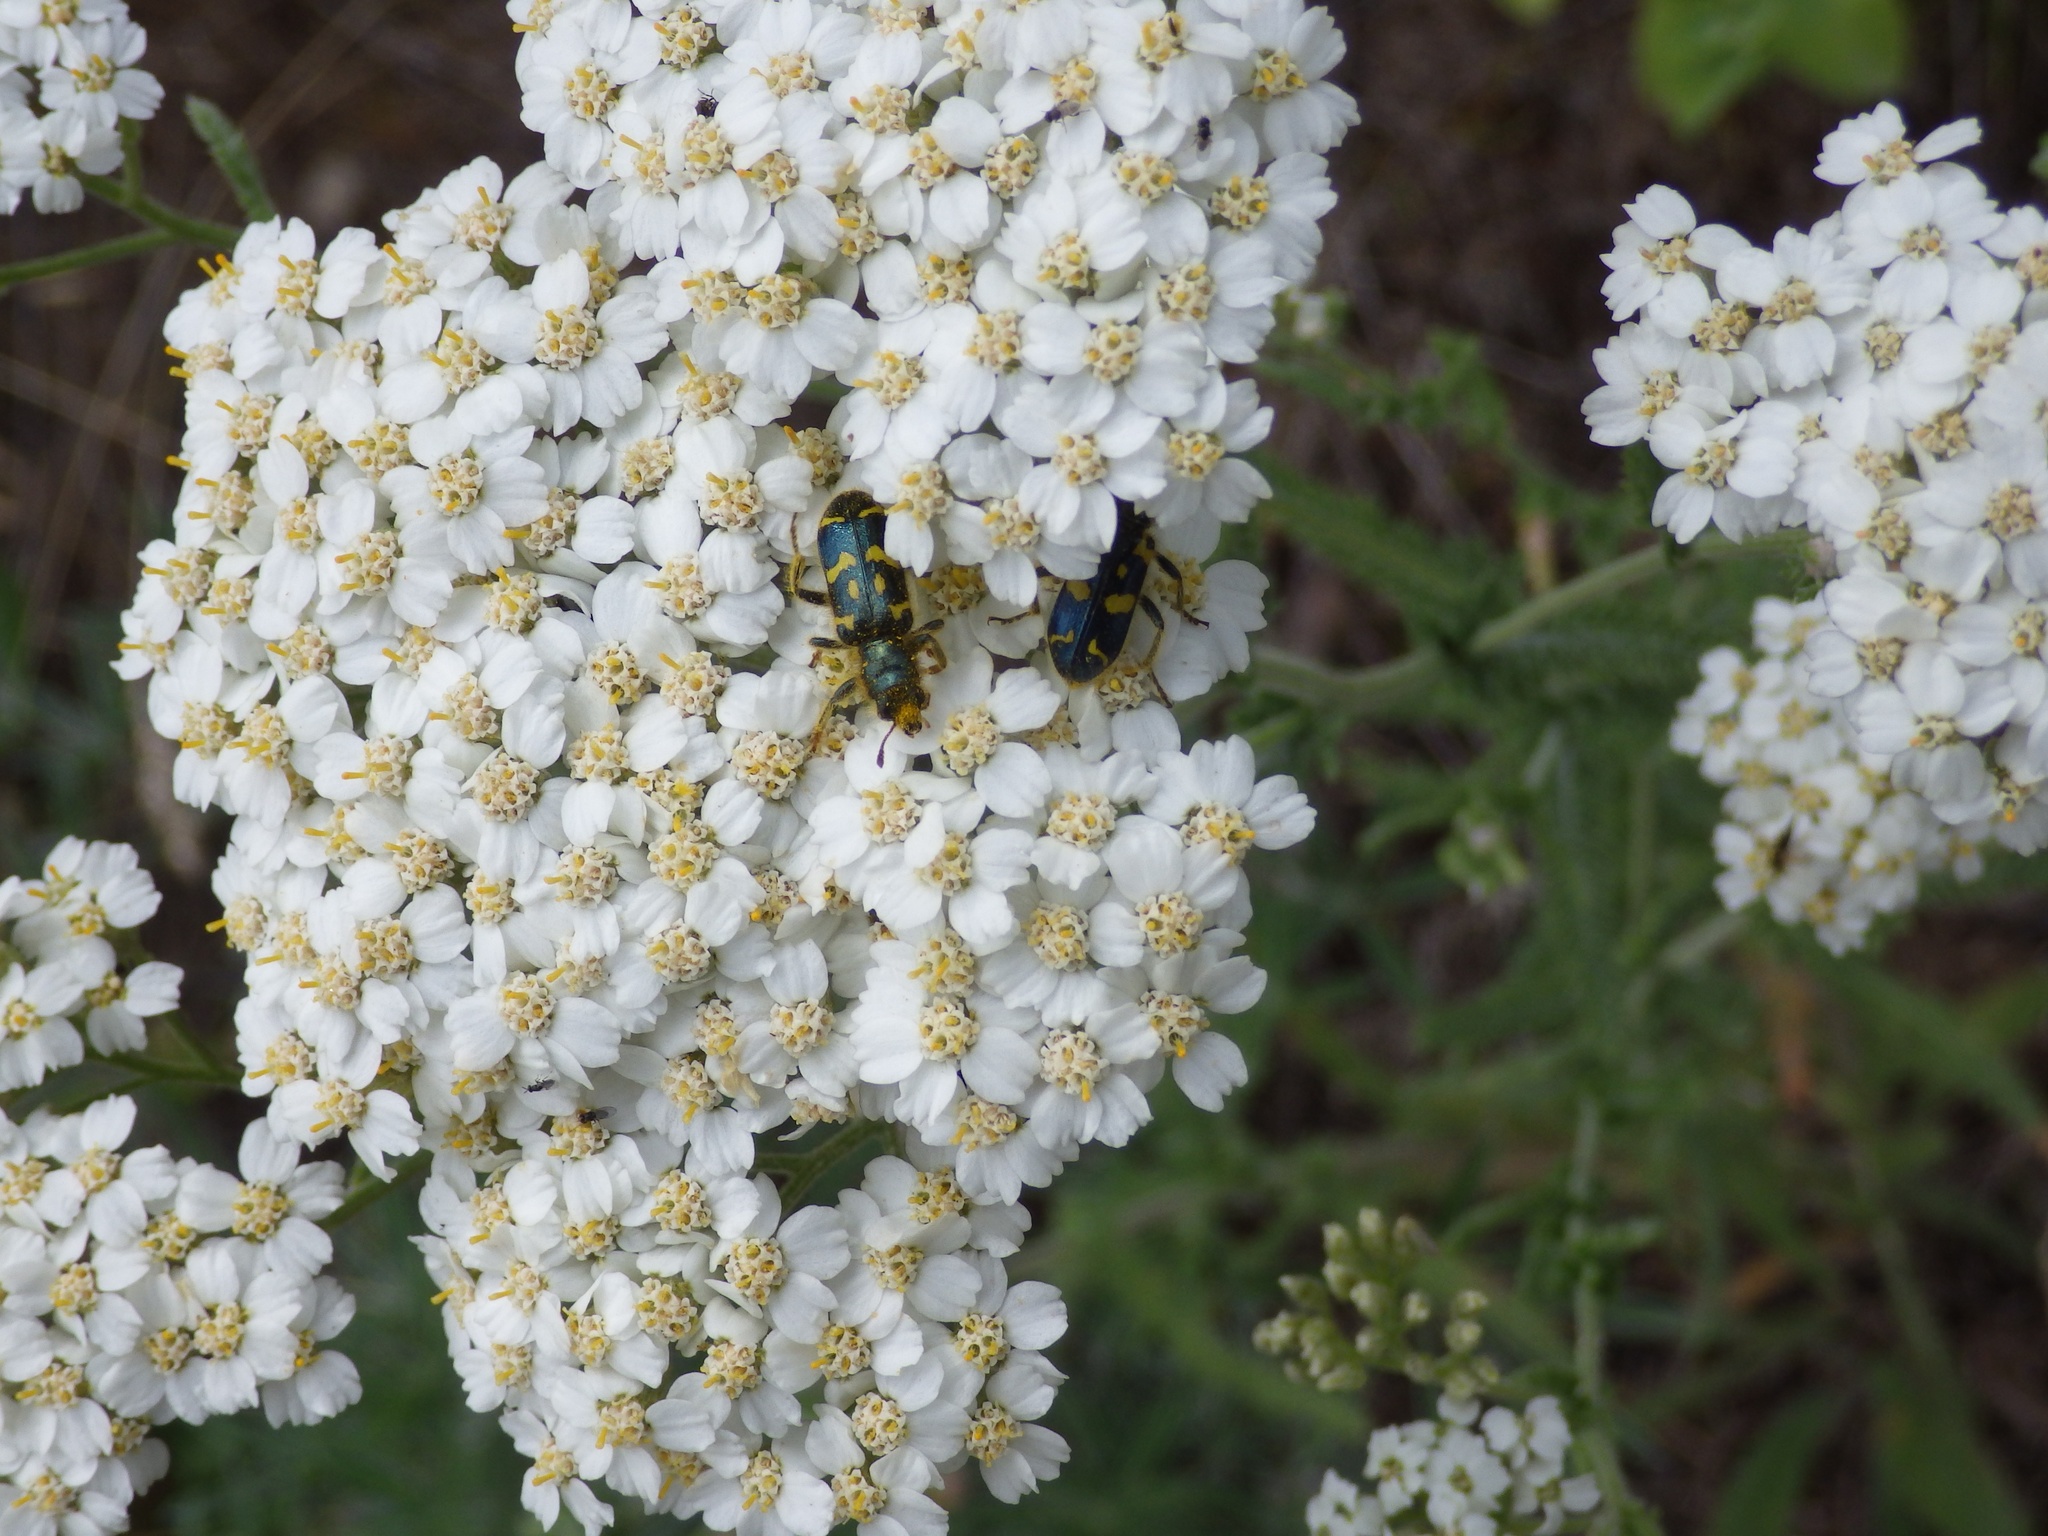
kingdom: Animalia
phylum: Arthropoda
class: Insecta
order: Coleoptera
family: Cleridae
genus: Trichodes
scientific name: Trichodes ornatus
